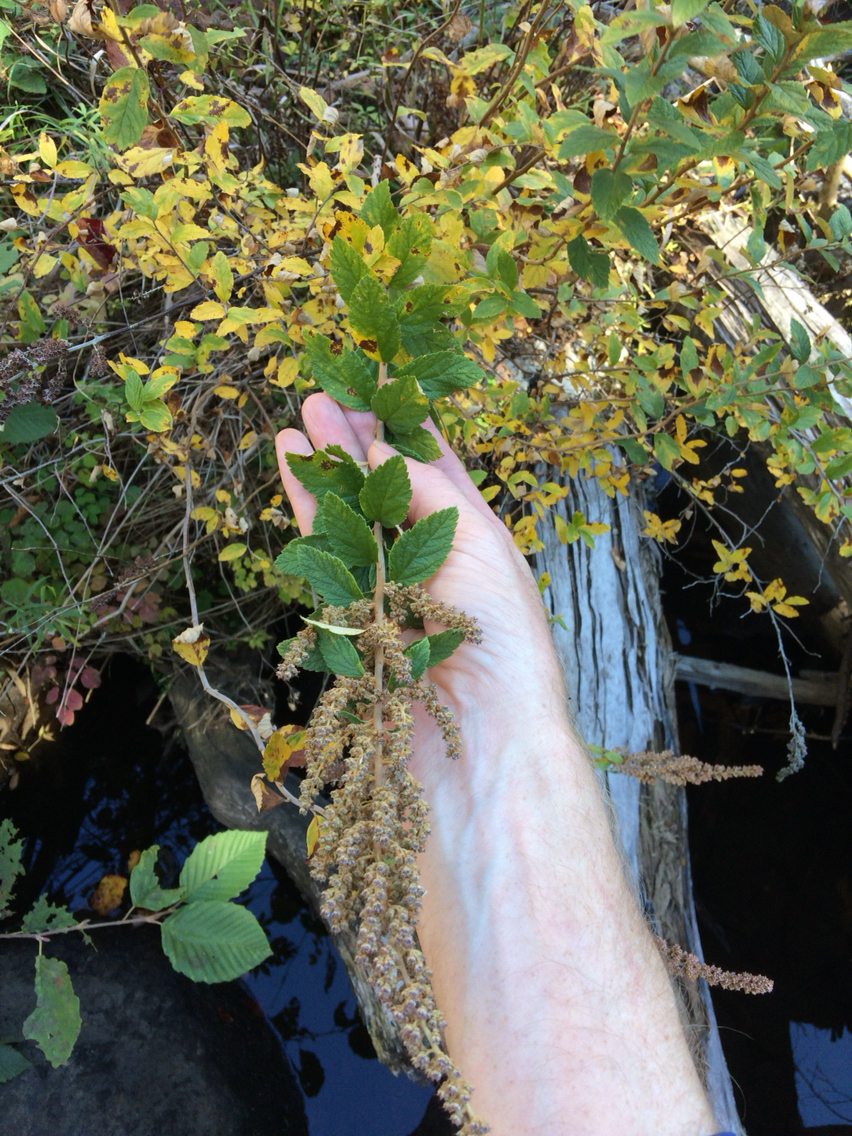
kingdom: Plantae
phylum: Tracheophyta
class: Magnoliopsida
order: Rosales
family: Rosaceae
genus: Spiraea
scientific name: Spiraea tomentosa
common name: Hardhack
